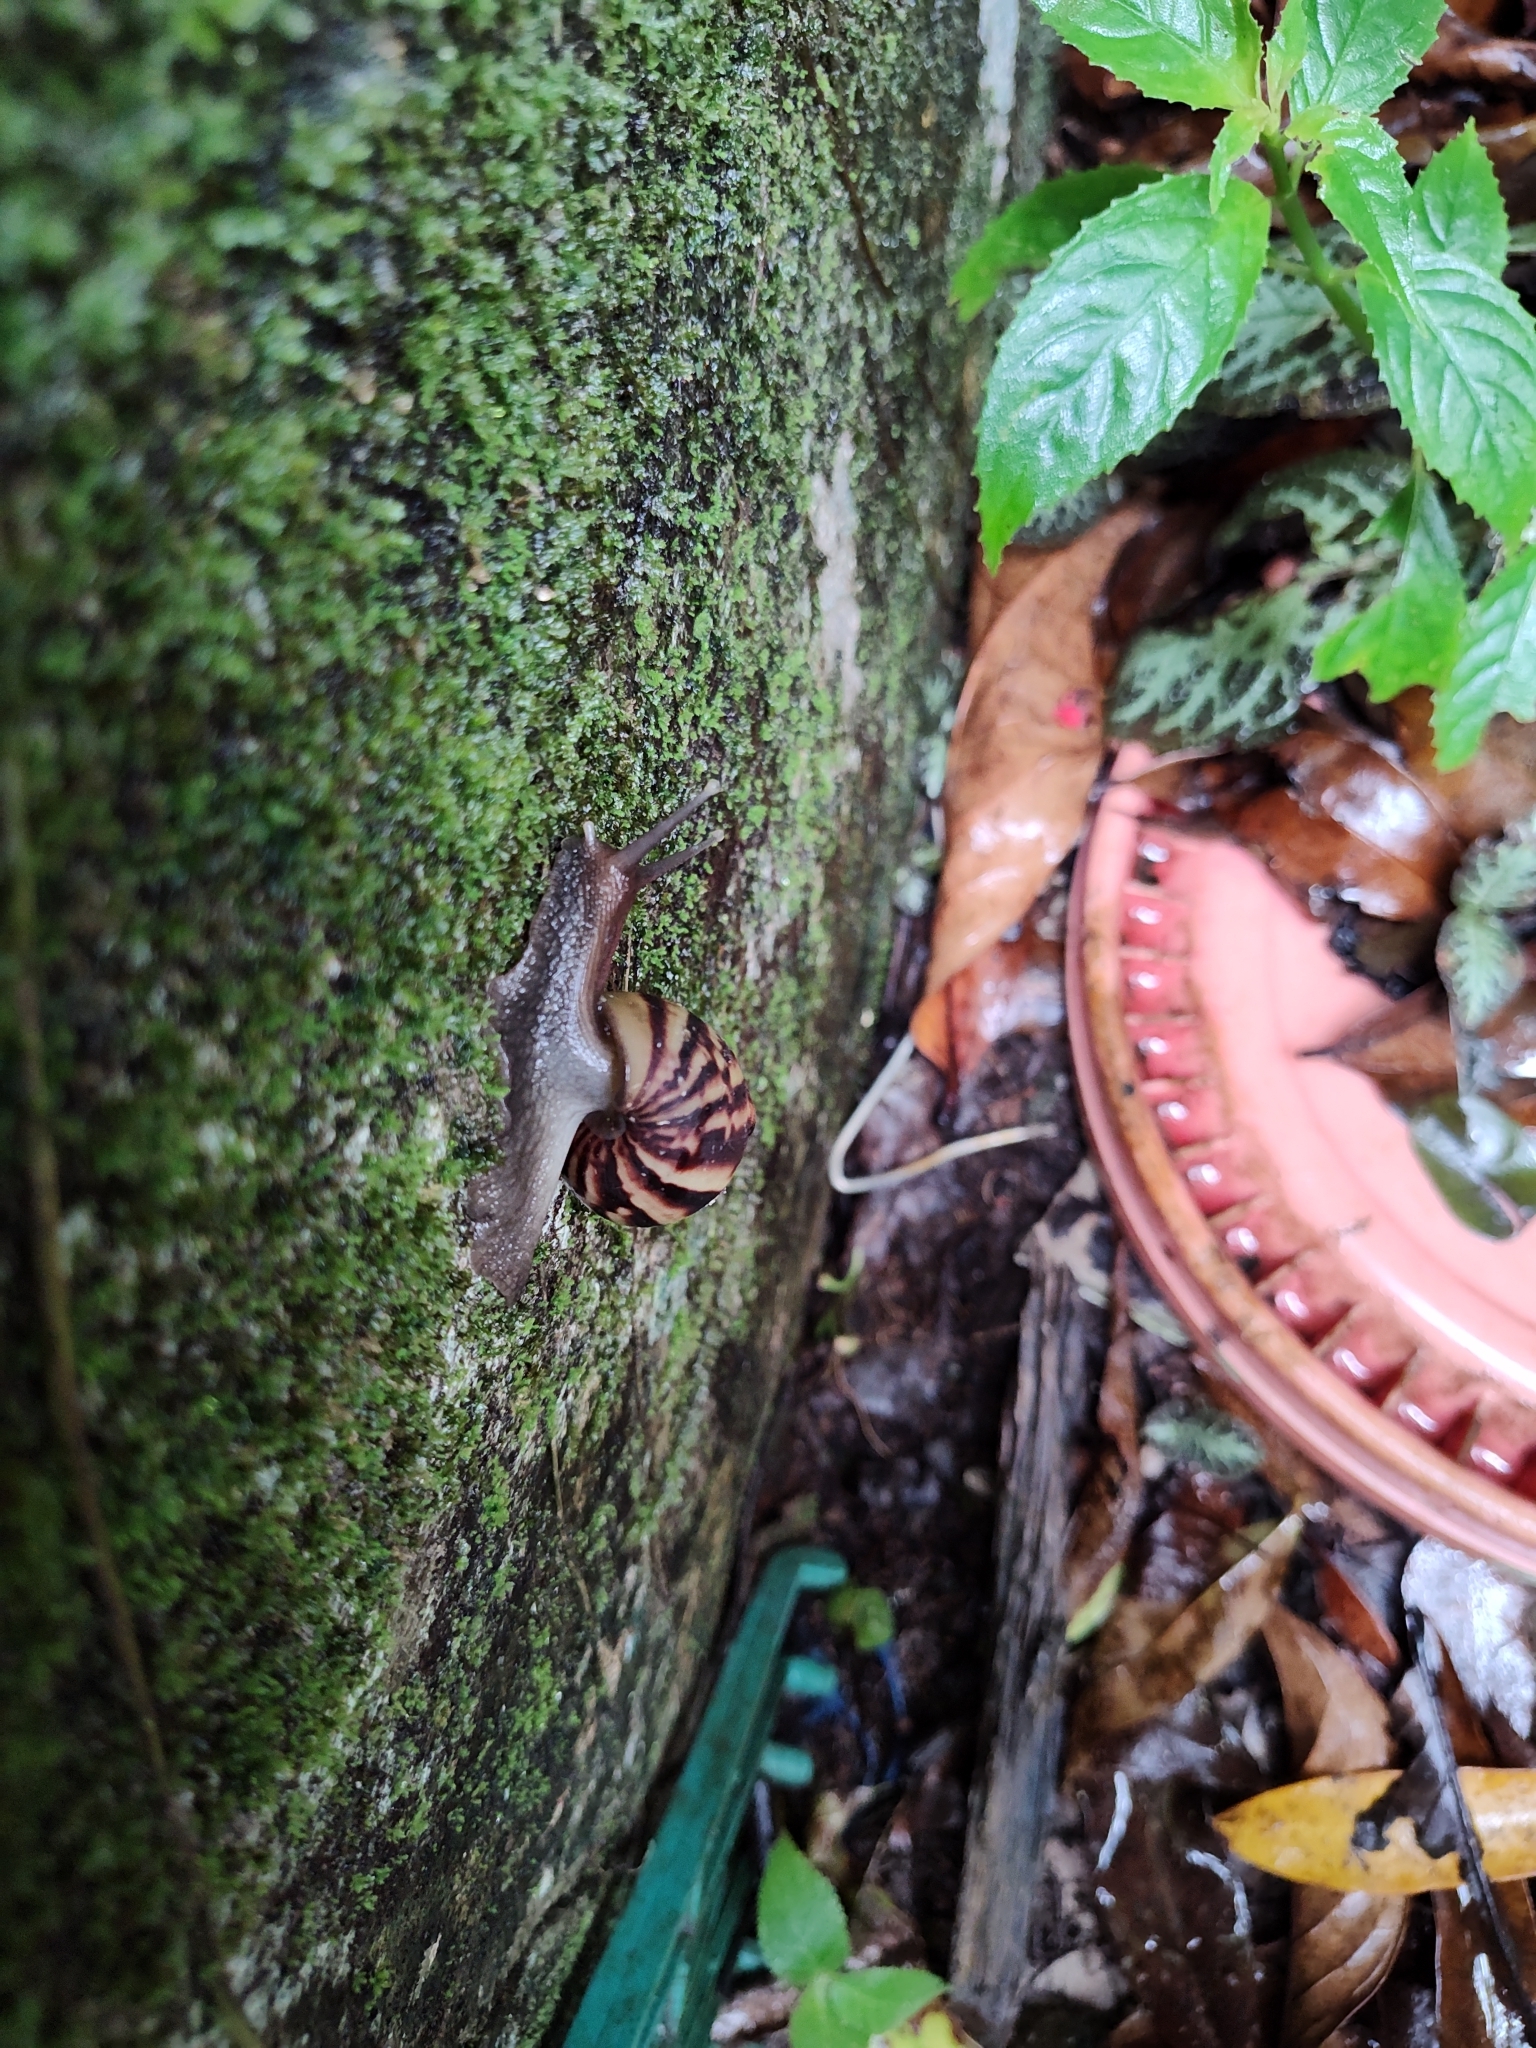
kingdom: Animalia
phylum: Mollusca
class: Gastropoda
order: Stylommatophora
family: Achatinidae
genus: Lissachatina
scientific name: Lissachatina fulica
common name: Giant african snail
